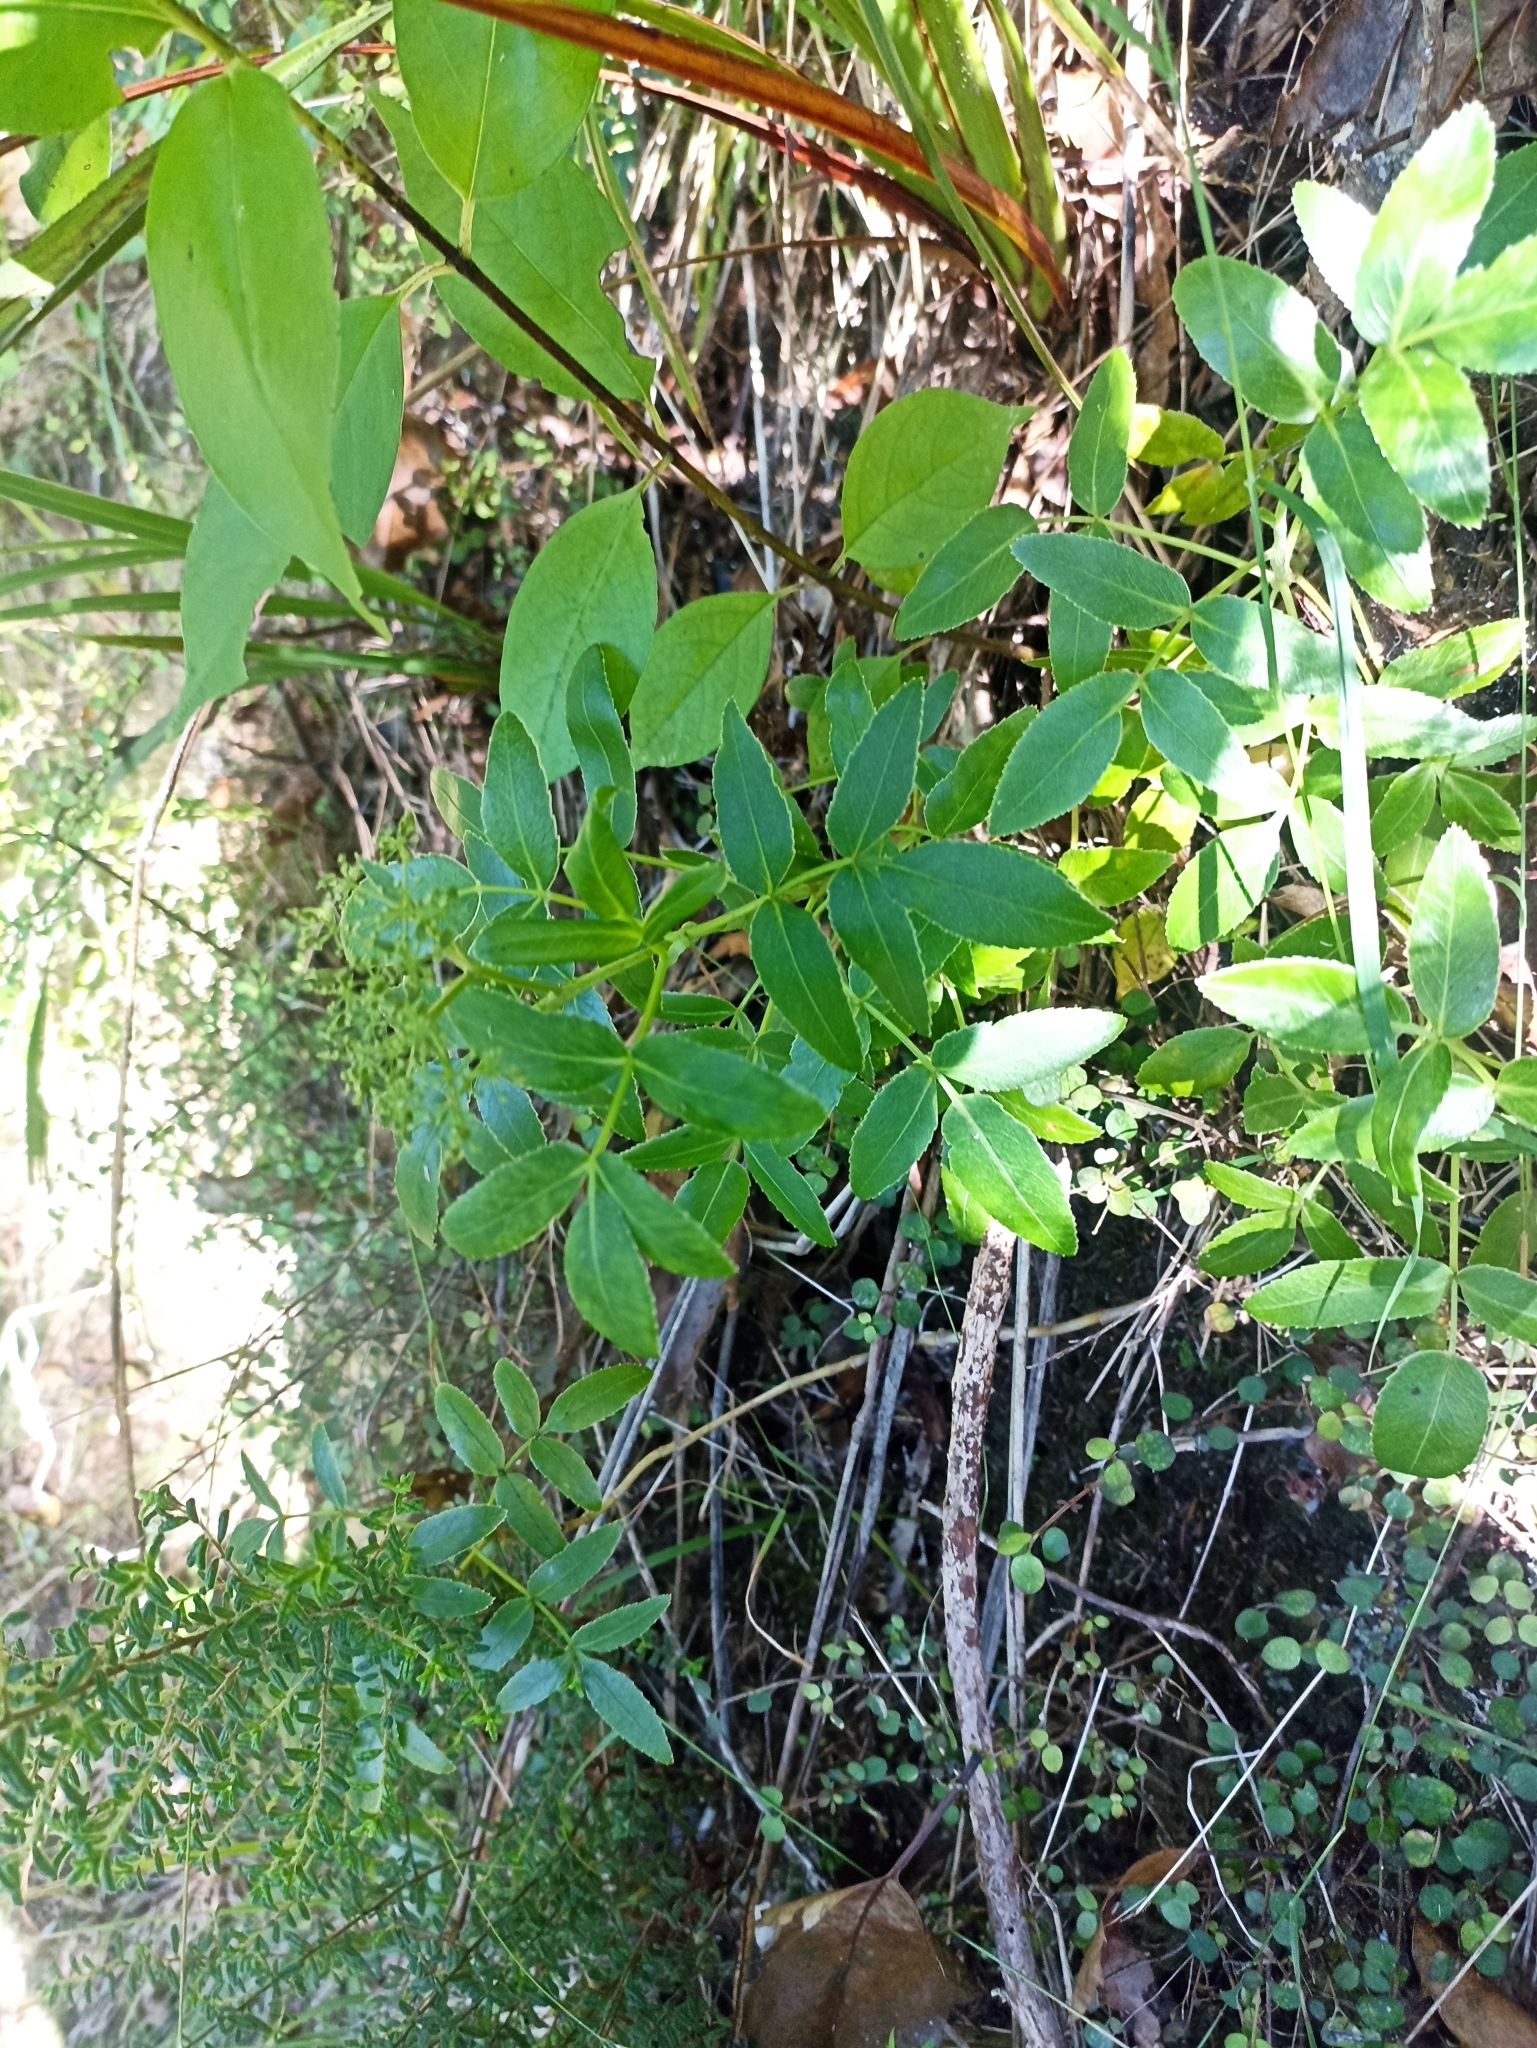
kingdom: Plantae
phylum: Tracheophyta
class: Magnoliopsida
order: Apiales
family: Apiaceae
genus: Scandia
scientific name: Scandia rosifolia
